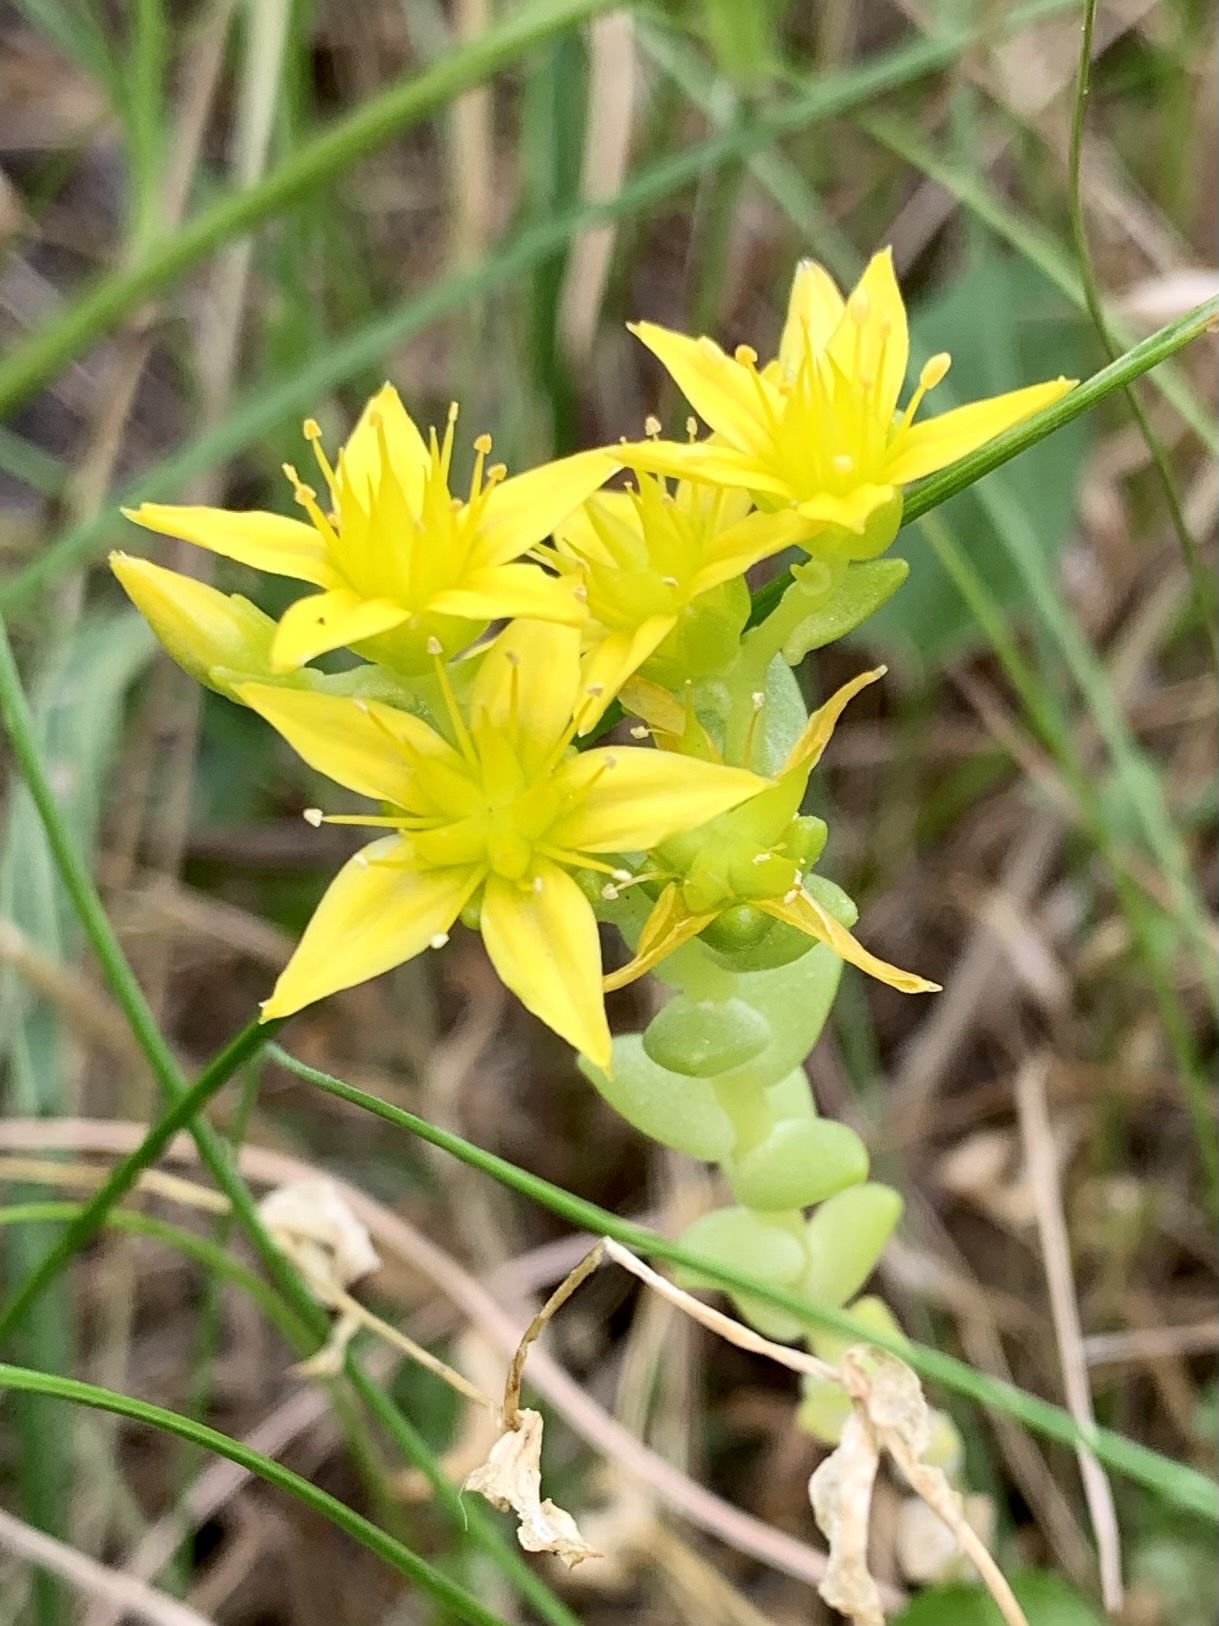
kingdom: Plantae
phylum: Tracheophyta
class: Magnoliopsida
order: Saxifragales
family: Crassulaceae
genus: Sedum
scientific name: Sedum acre
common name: Biting stonecrop
